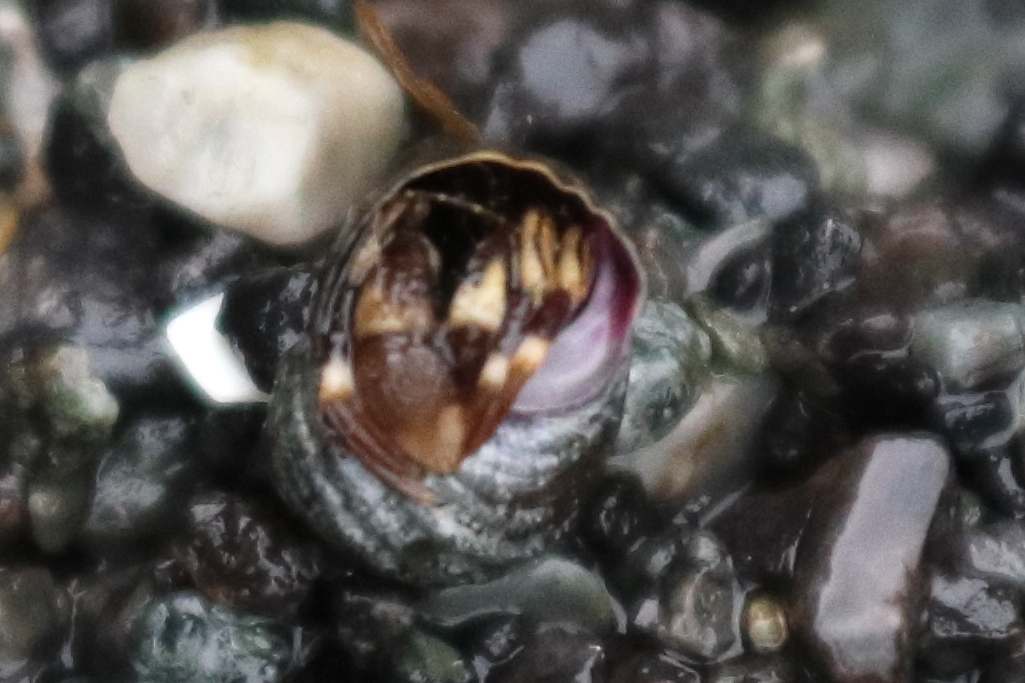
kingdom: Animalia
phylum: Arthropoda
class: Malacostraca
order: Decapoda
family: Paguridae
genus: Pagurus
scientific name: Pagurus hirsutiusculus
